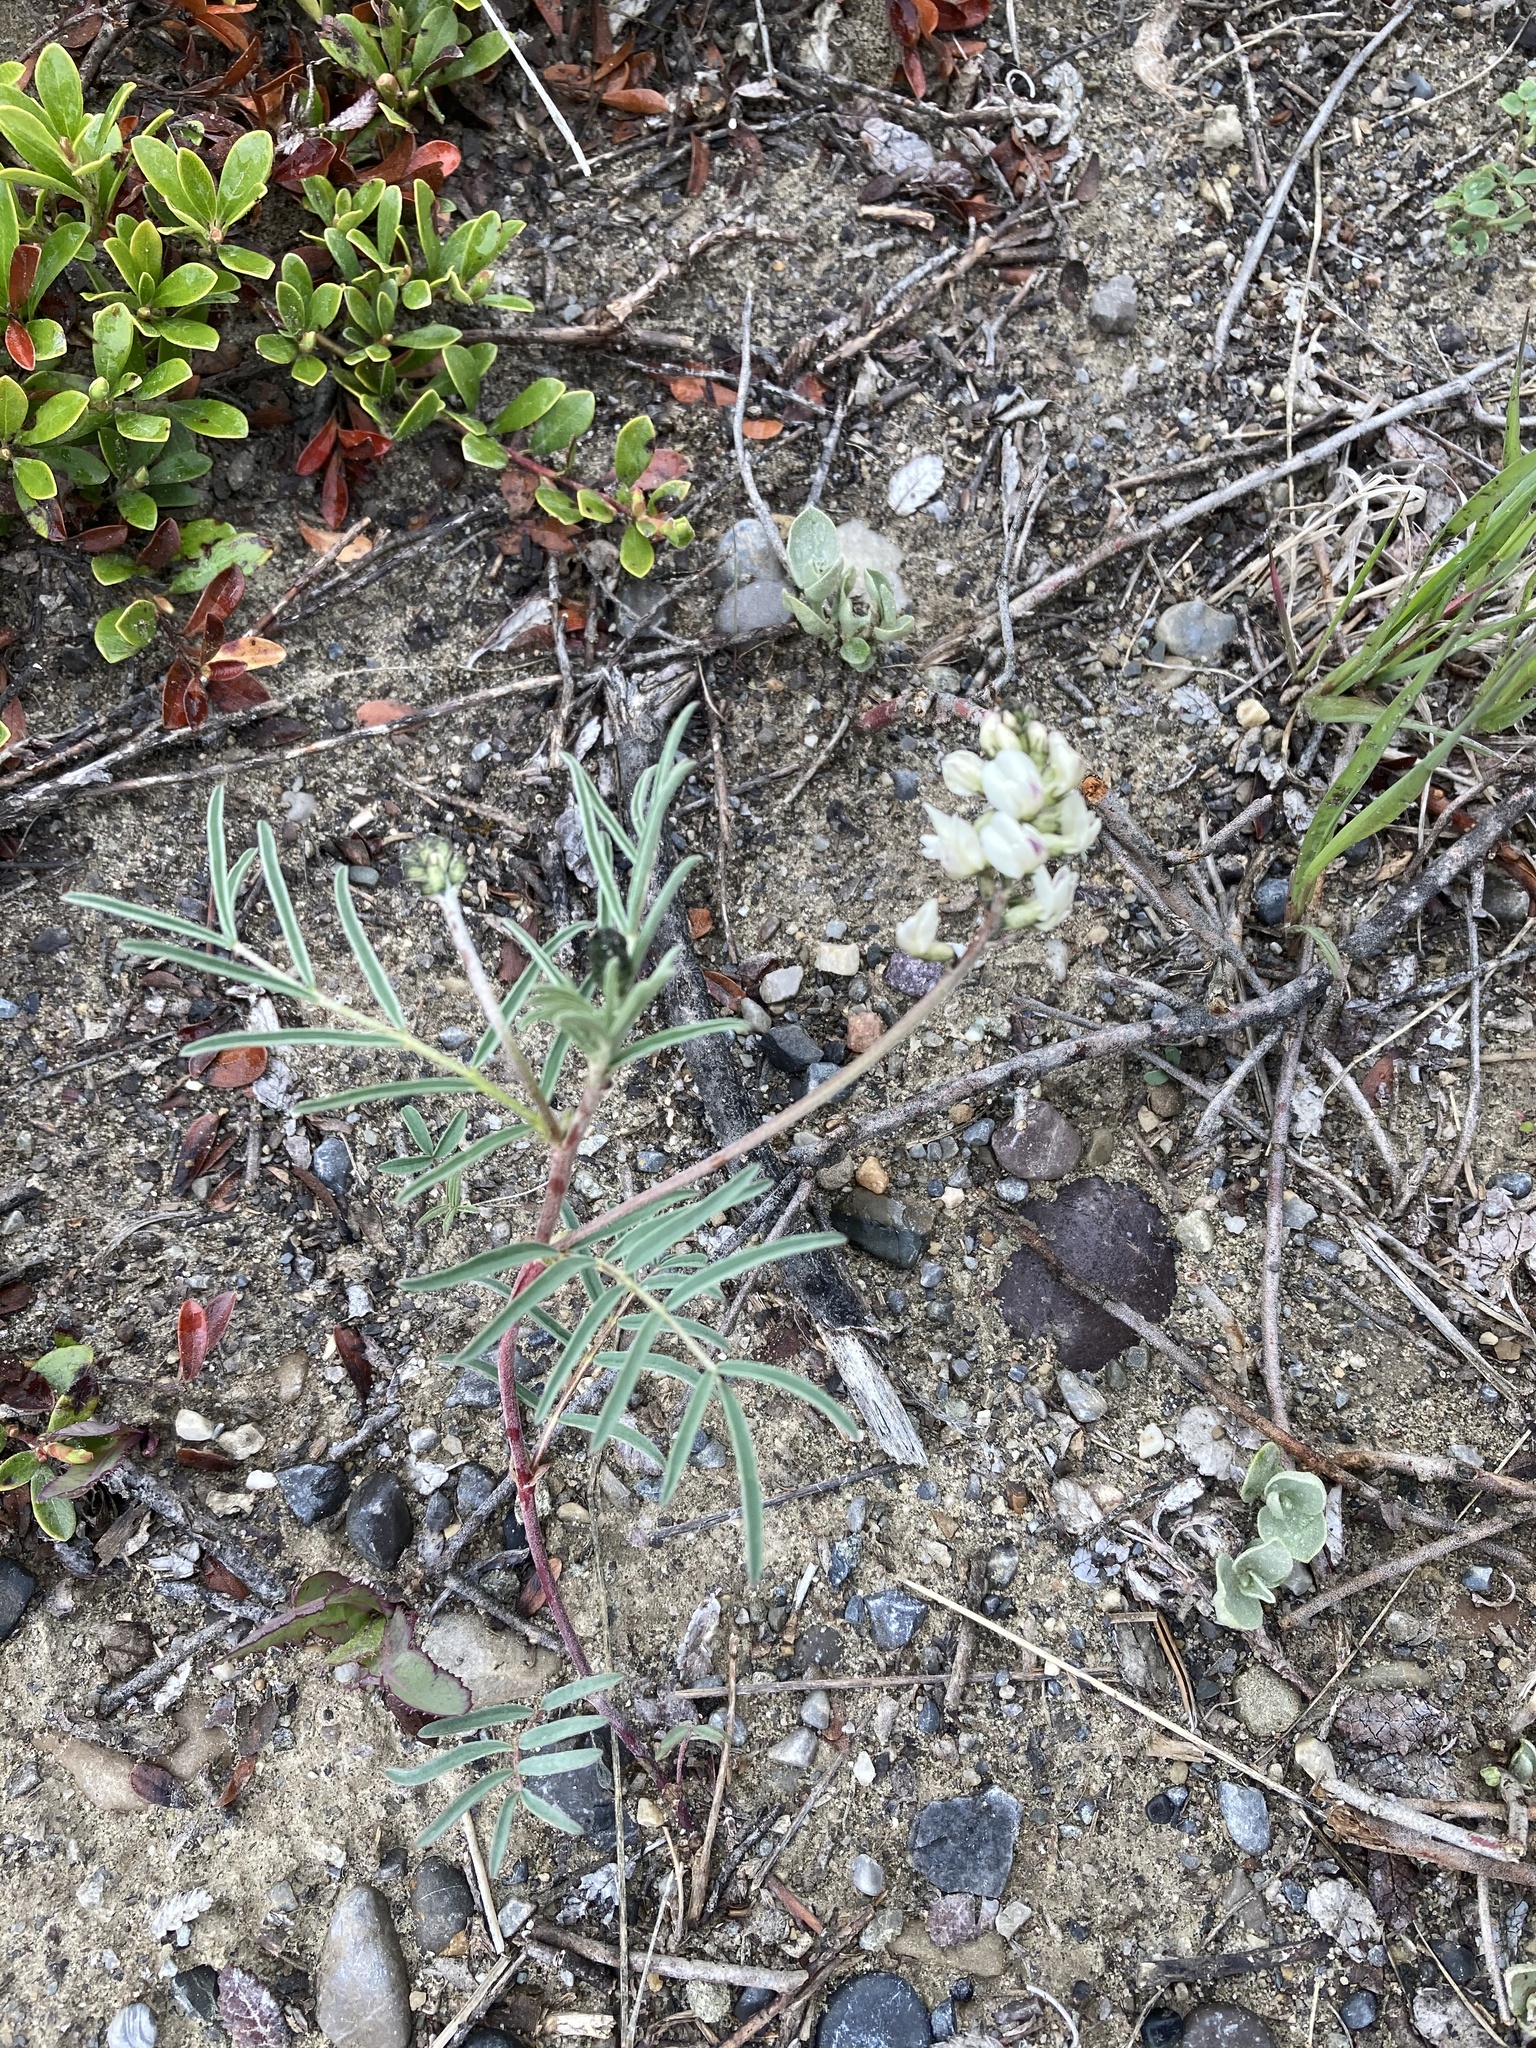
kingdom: Plantae
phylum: Tracheophyta
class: Magnoliopsida
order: Fabales
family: Fabaceae
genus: Astragalus
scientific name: Astragalus australis
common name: Indian milk-vetch
